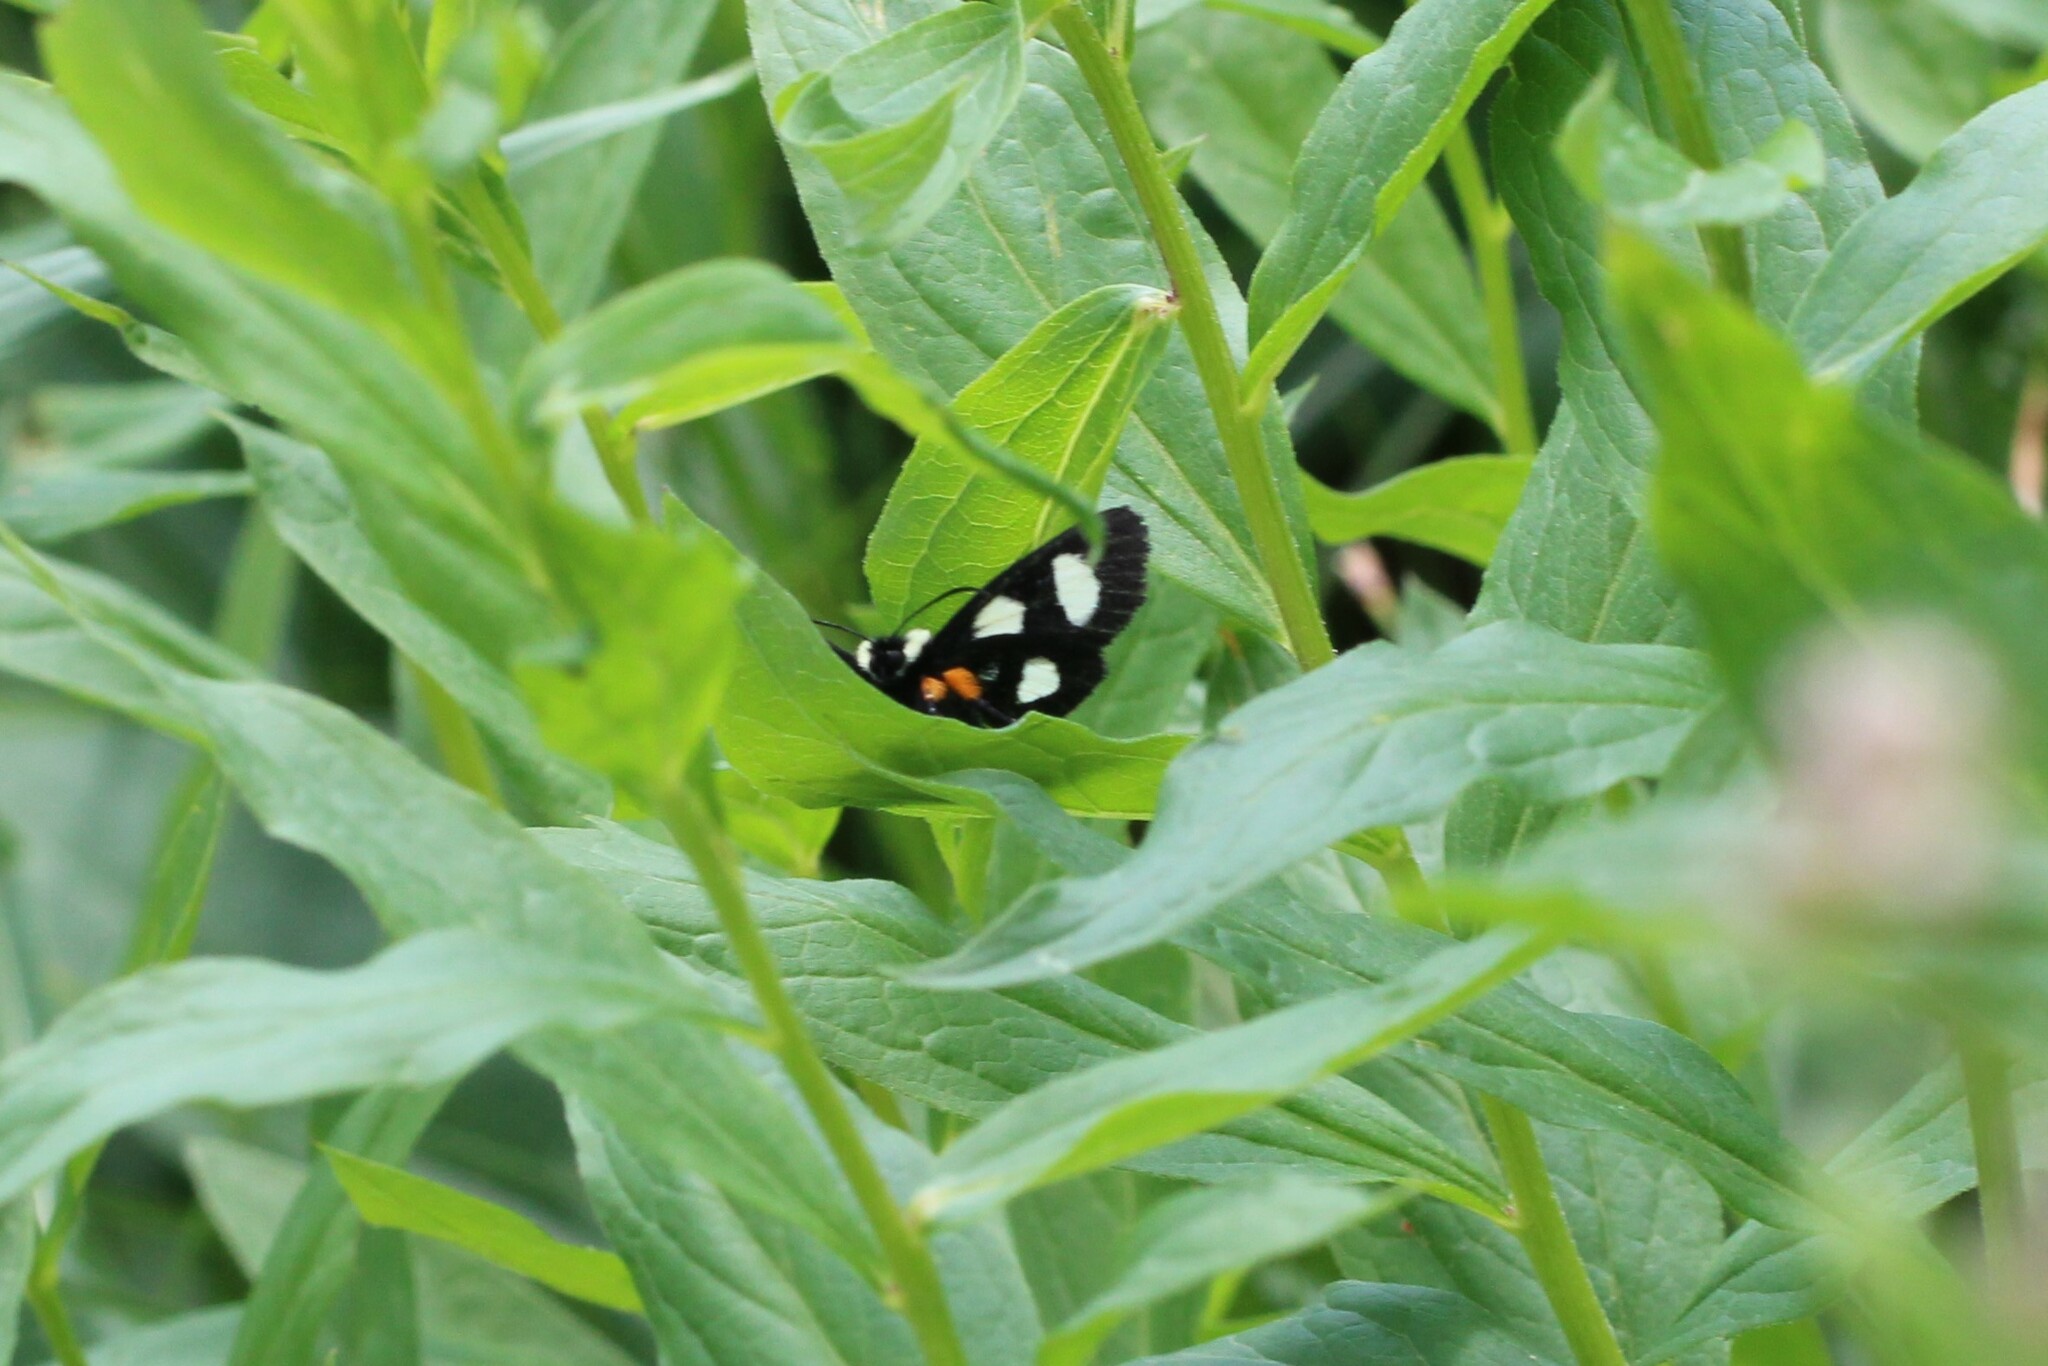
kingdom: Animalia
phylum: Arthropoda
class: Insecta
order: Lepidoptera
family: Noctuidae
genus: Alypia
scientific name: Alypia langtonii
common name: Fireweed caterpillar
